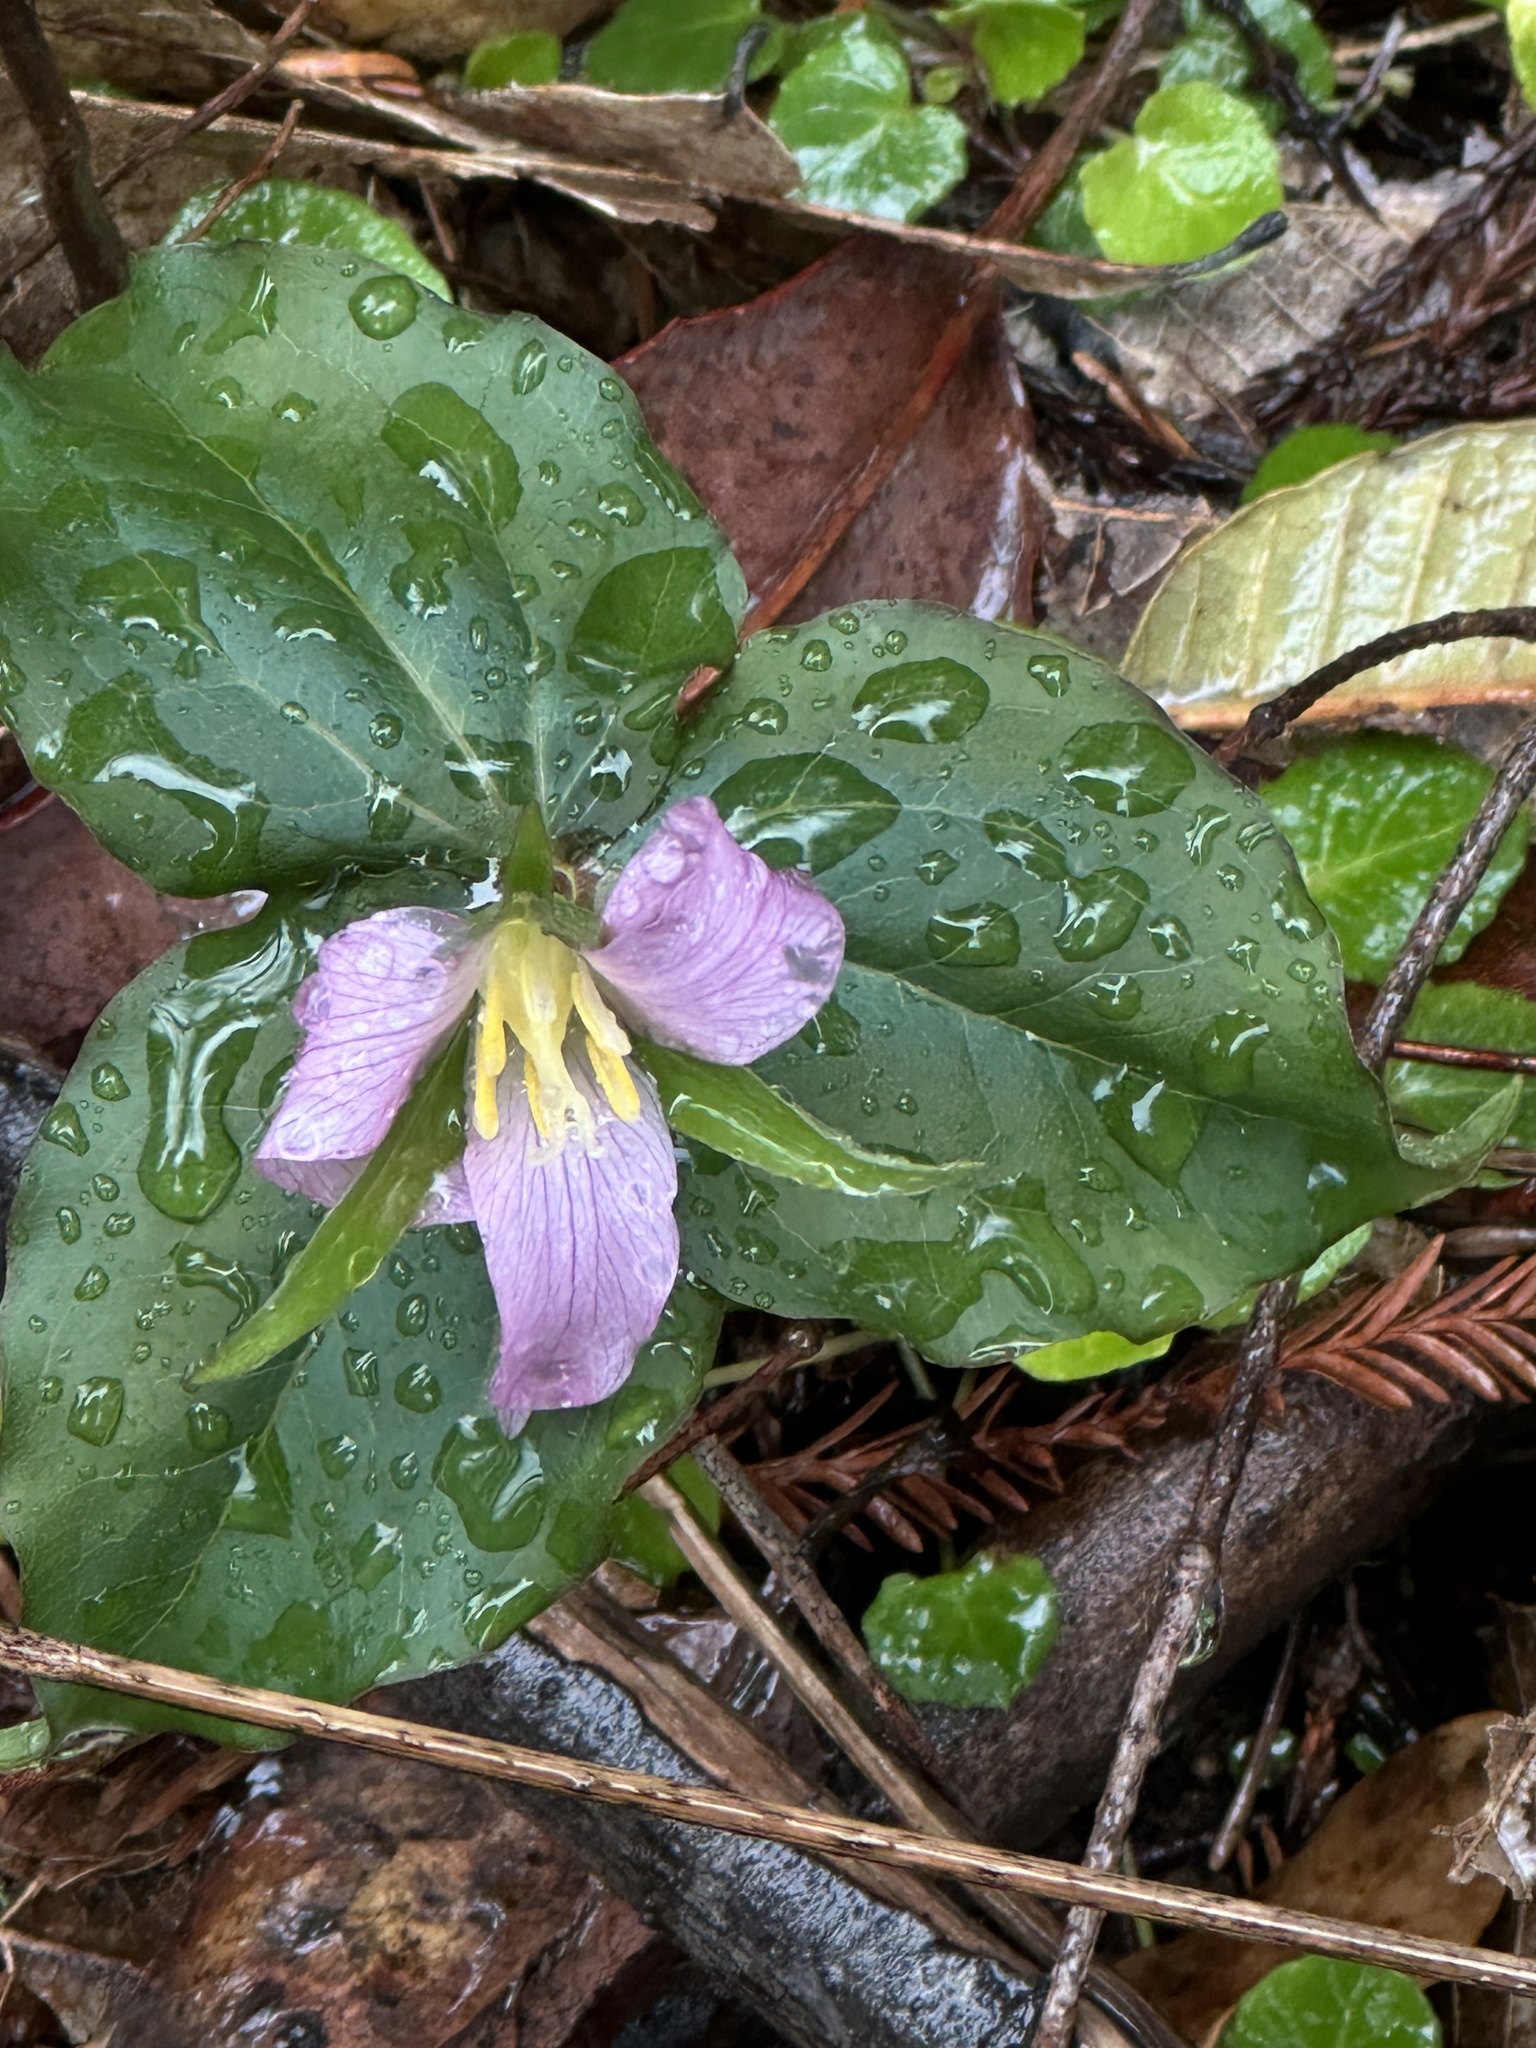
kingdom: Plantae
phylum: Tracheophyta
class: Liliopsida
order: Liliales
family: Melanthiaceae
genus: Trillium
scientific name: Trillium ovatum
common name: Pacific trillium
